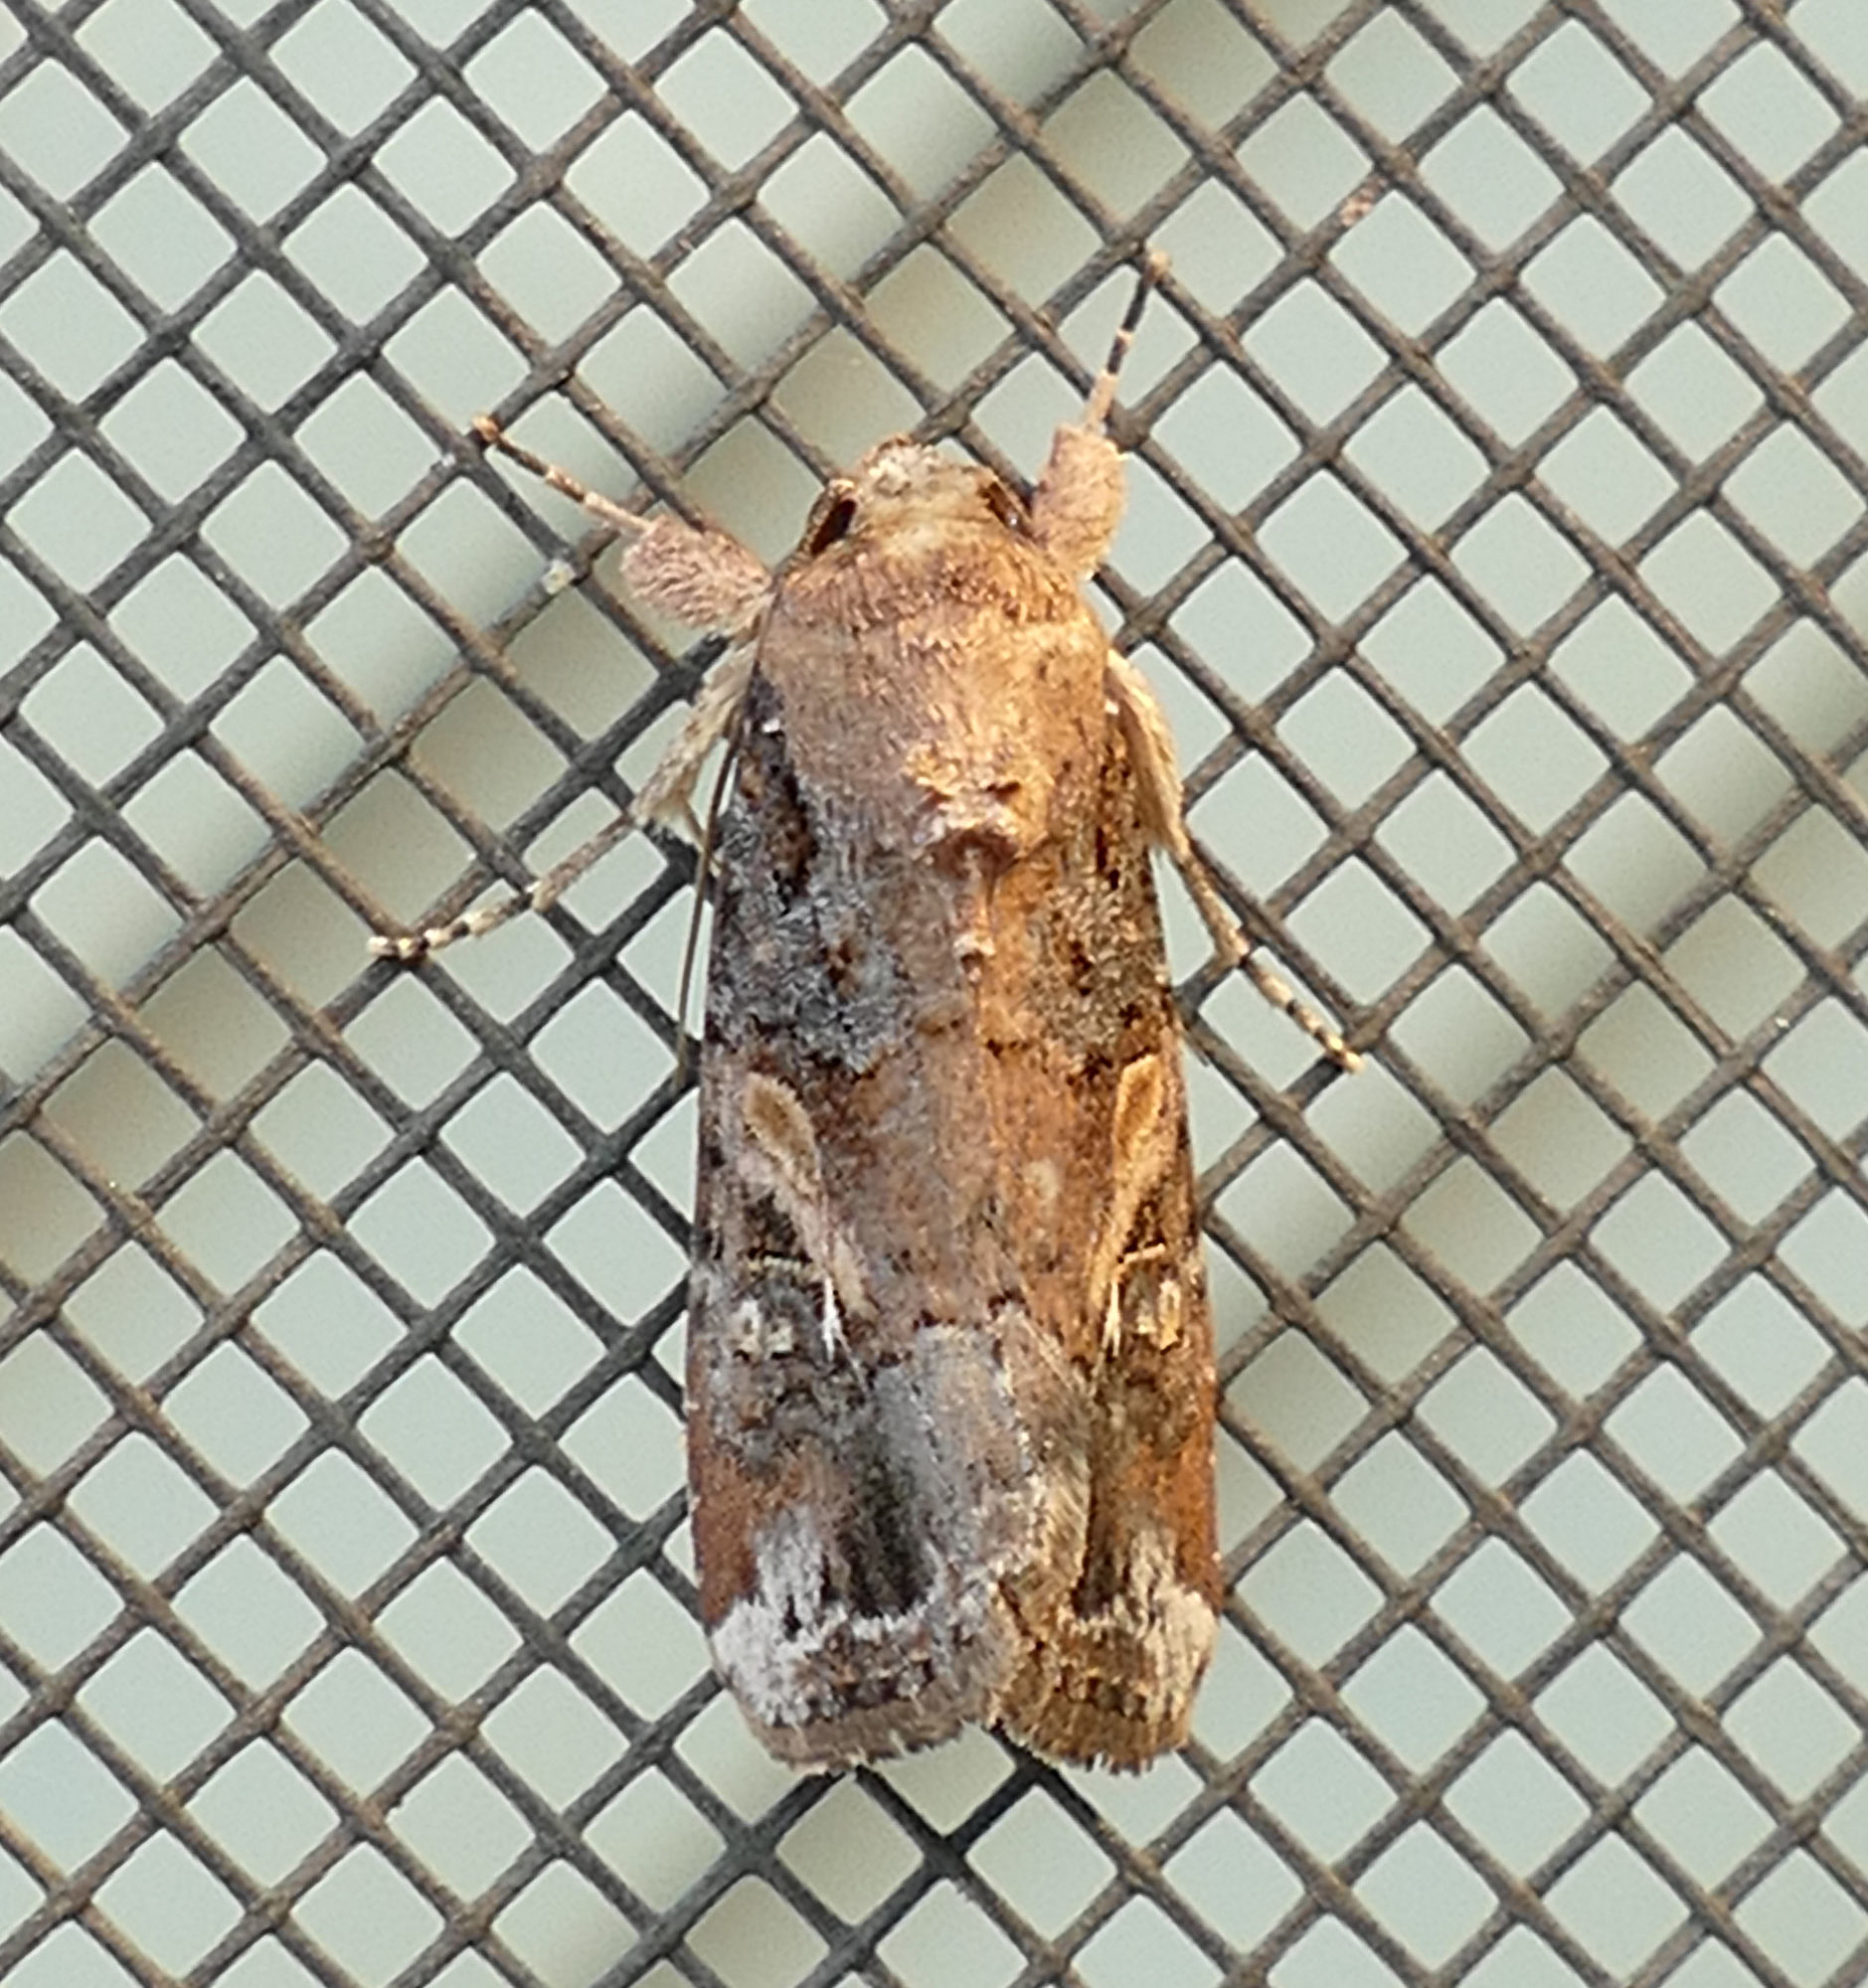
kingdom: Animalia
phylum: Arthropoda
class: Insecta
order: Lepidoptera
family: Noctuidae
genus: Spodoptera
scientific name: Spodoptera frugiperda
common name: Fall armyworm
